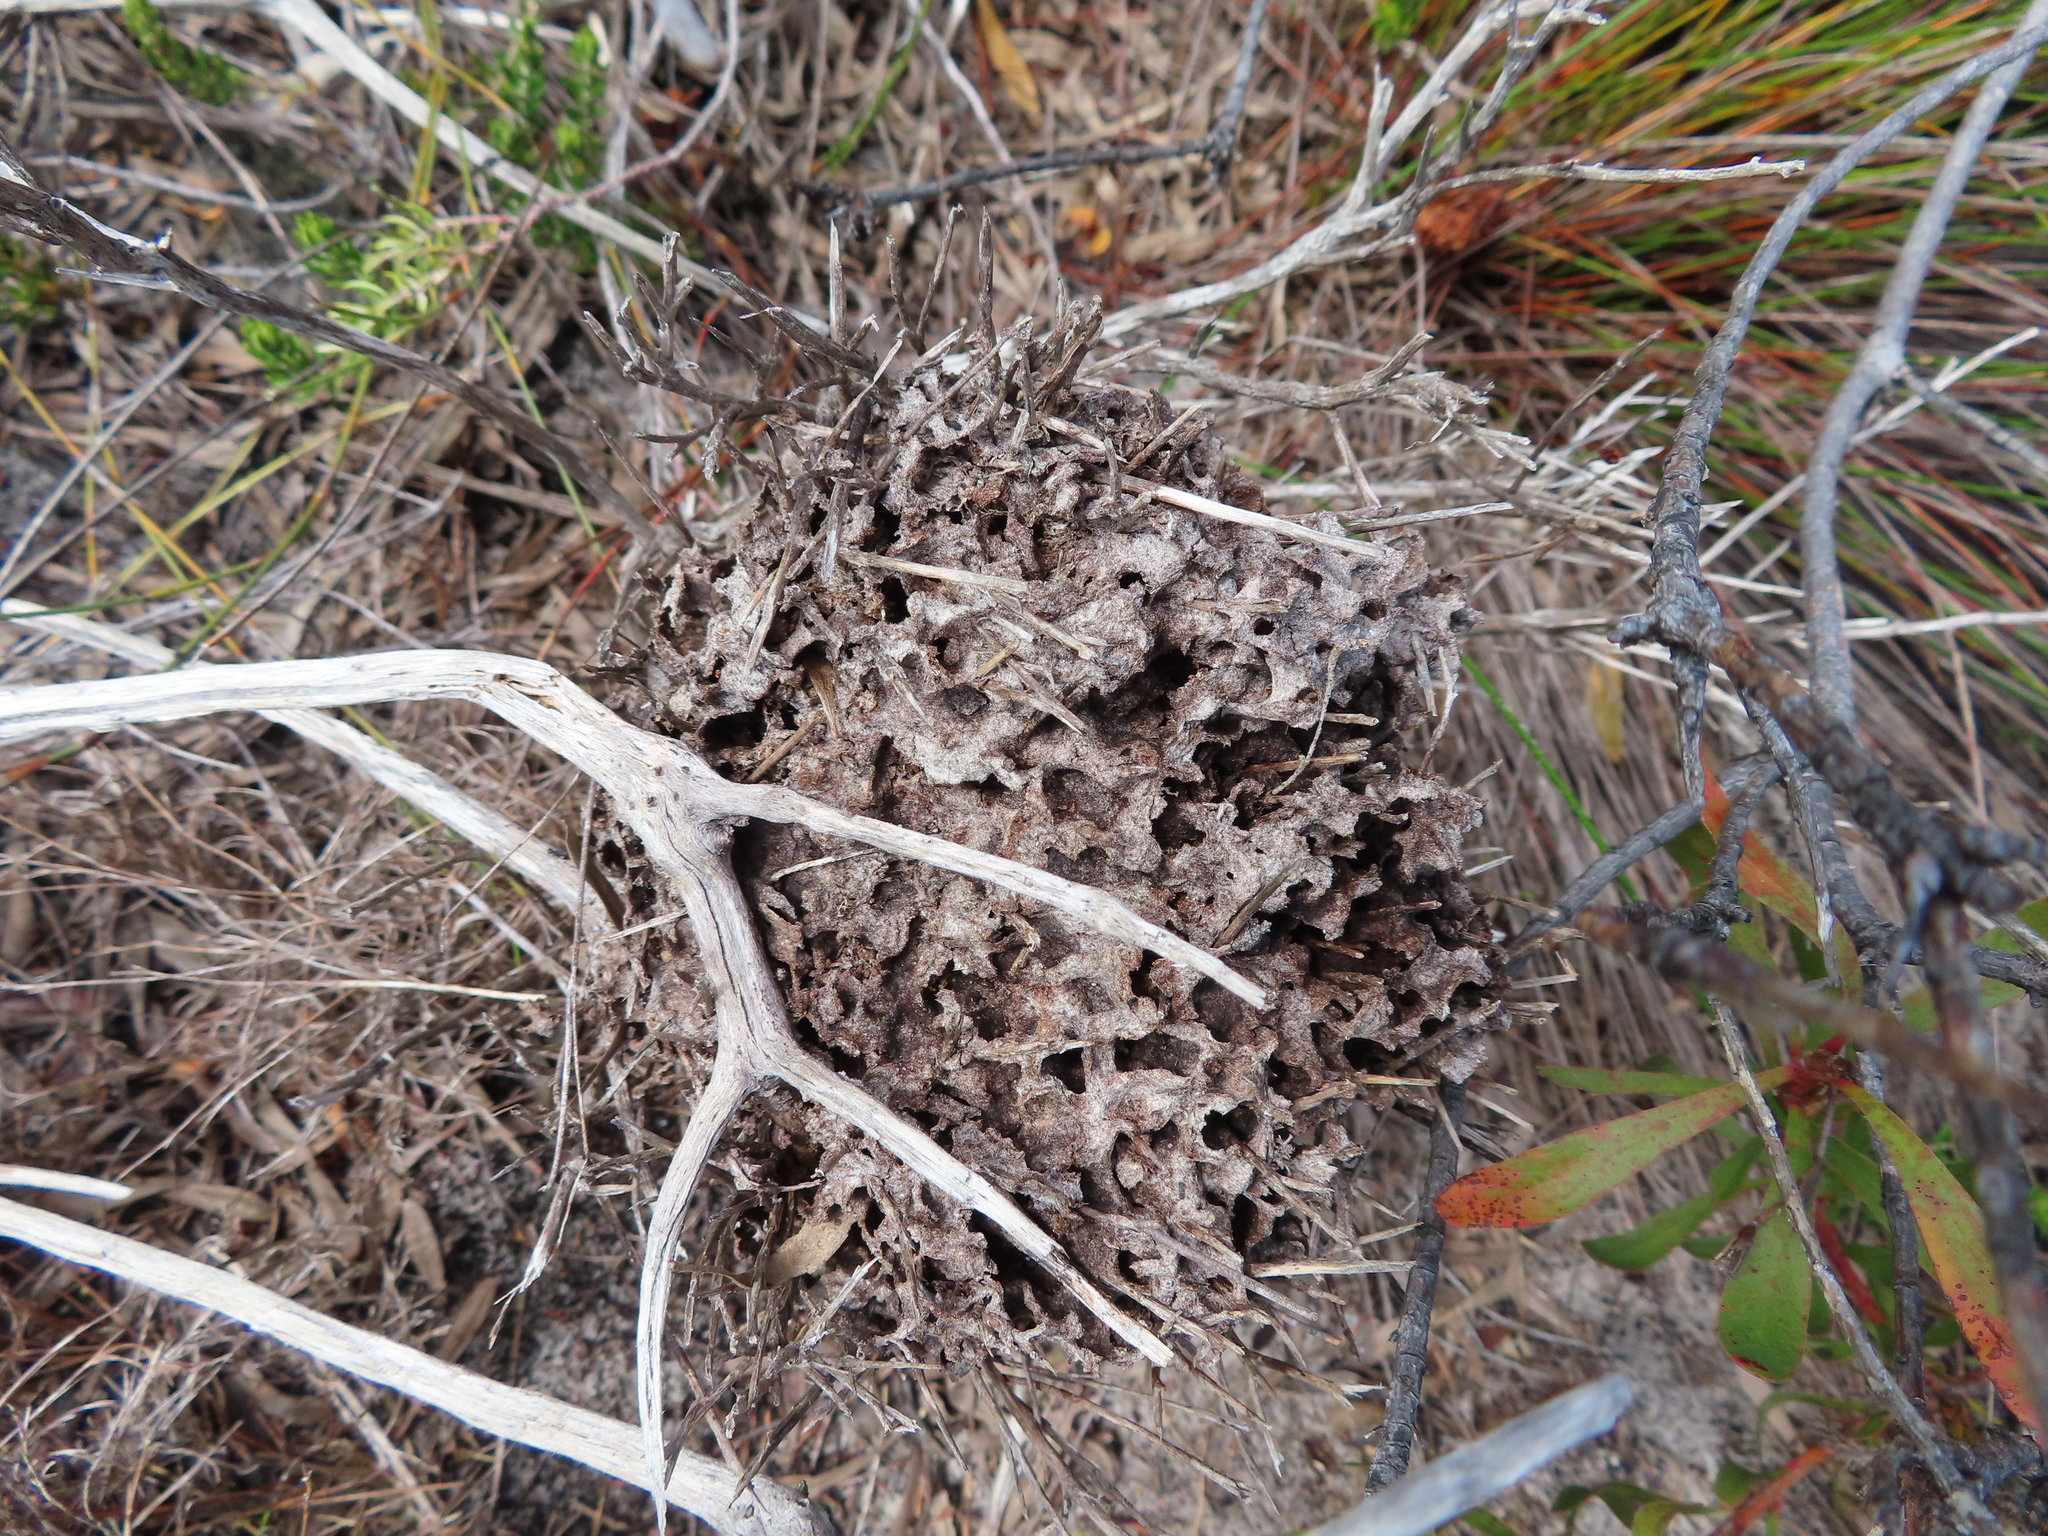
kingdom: Animalia
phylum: Arthropoda
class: Insecta
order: Hymenoptera
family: Formicidae
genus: Crematogaster
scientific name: Crematogaster peringueyi
